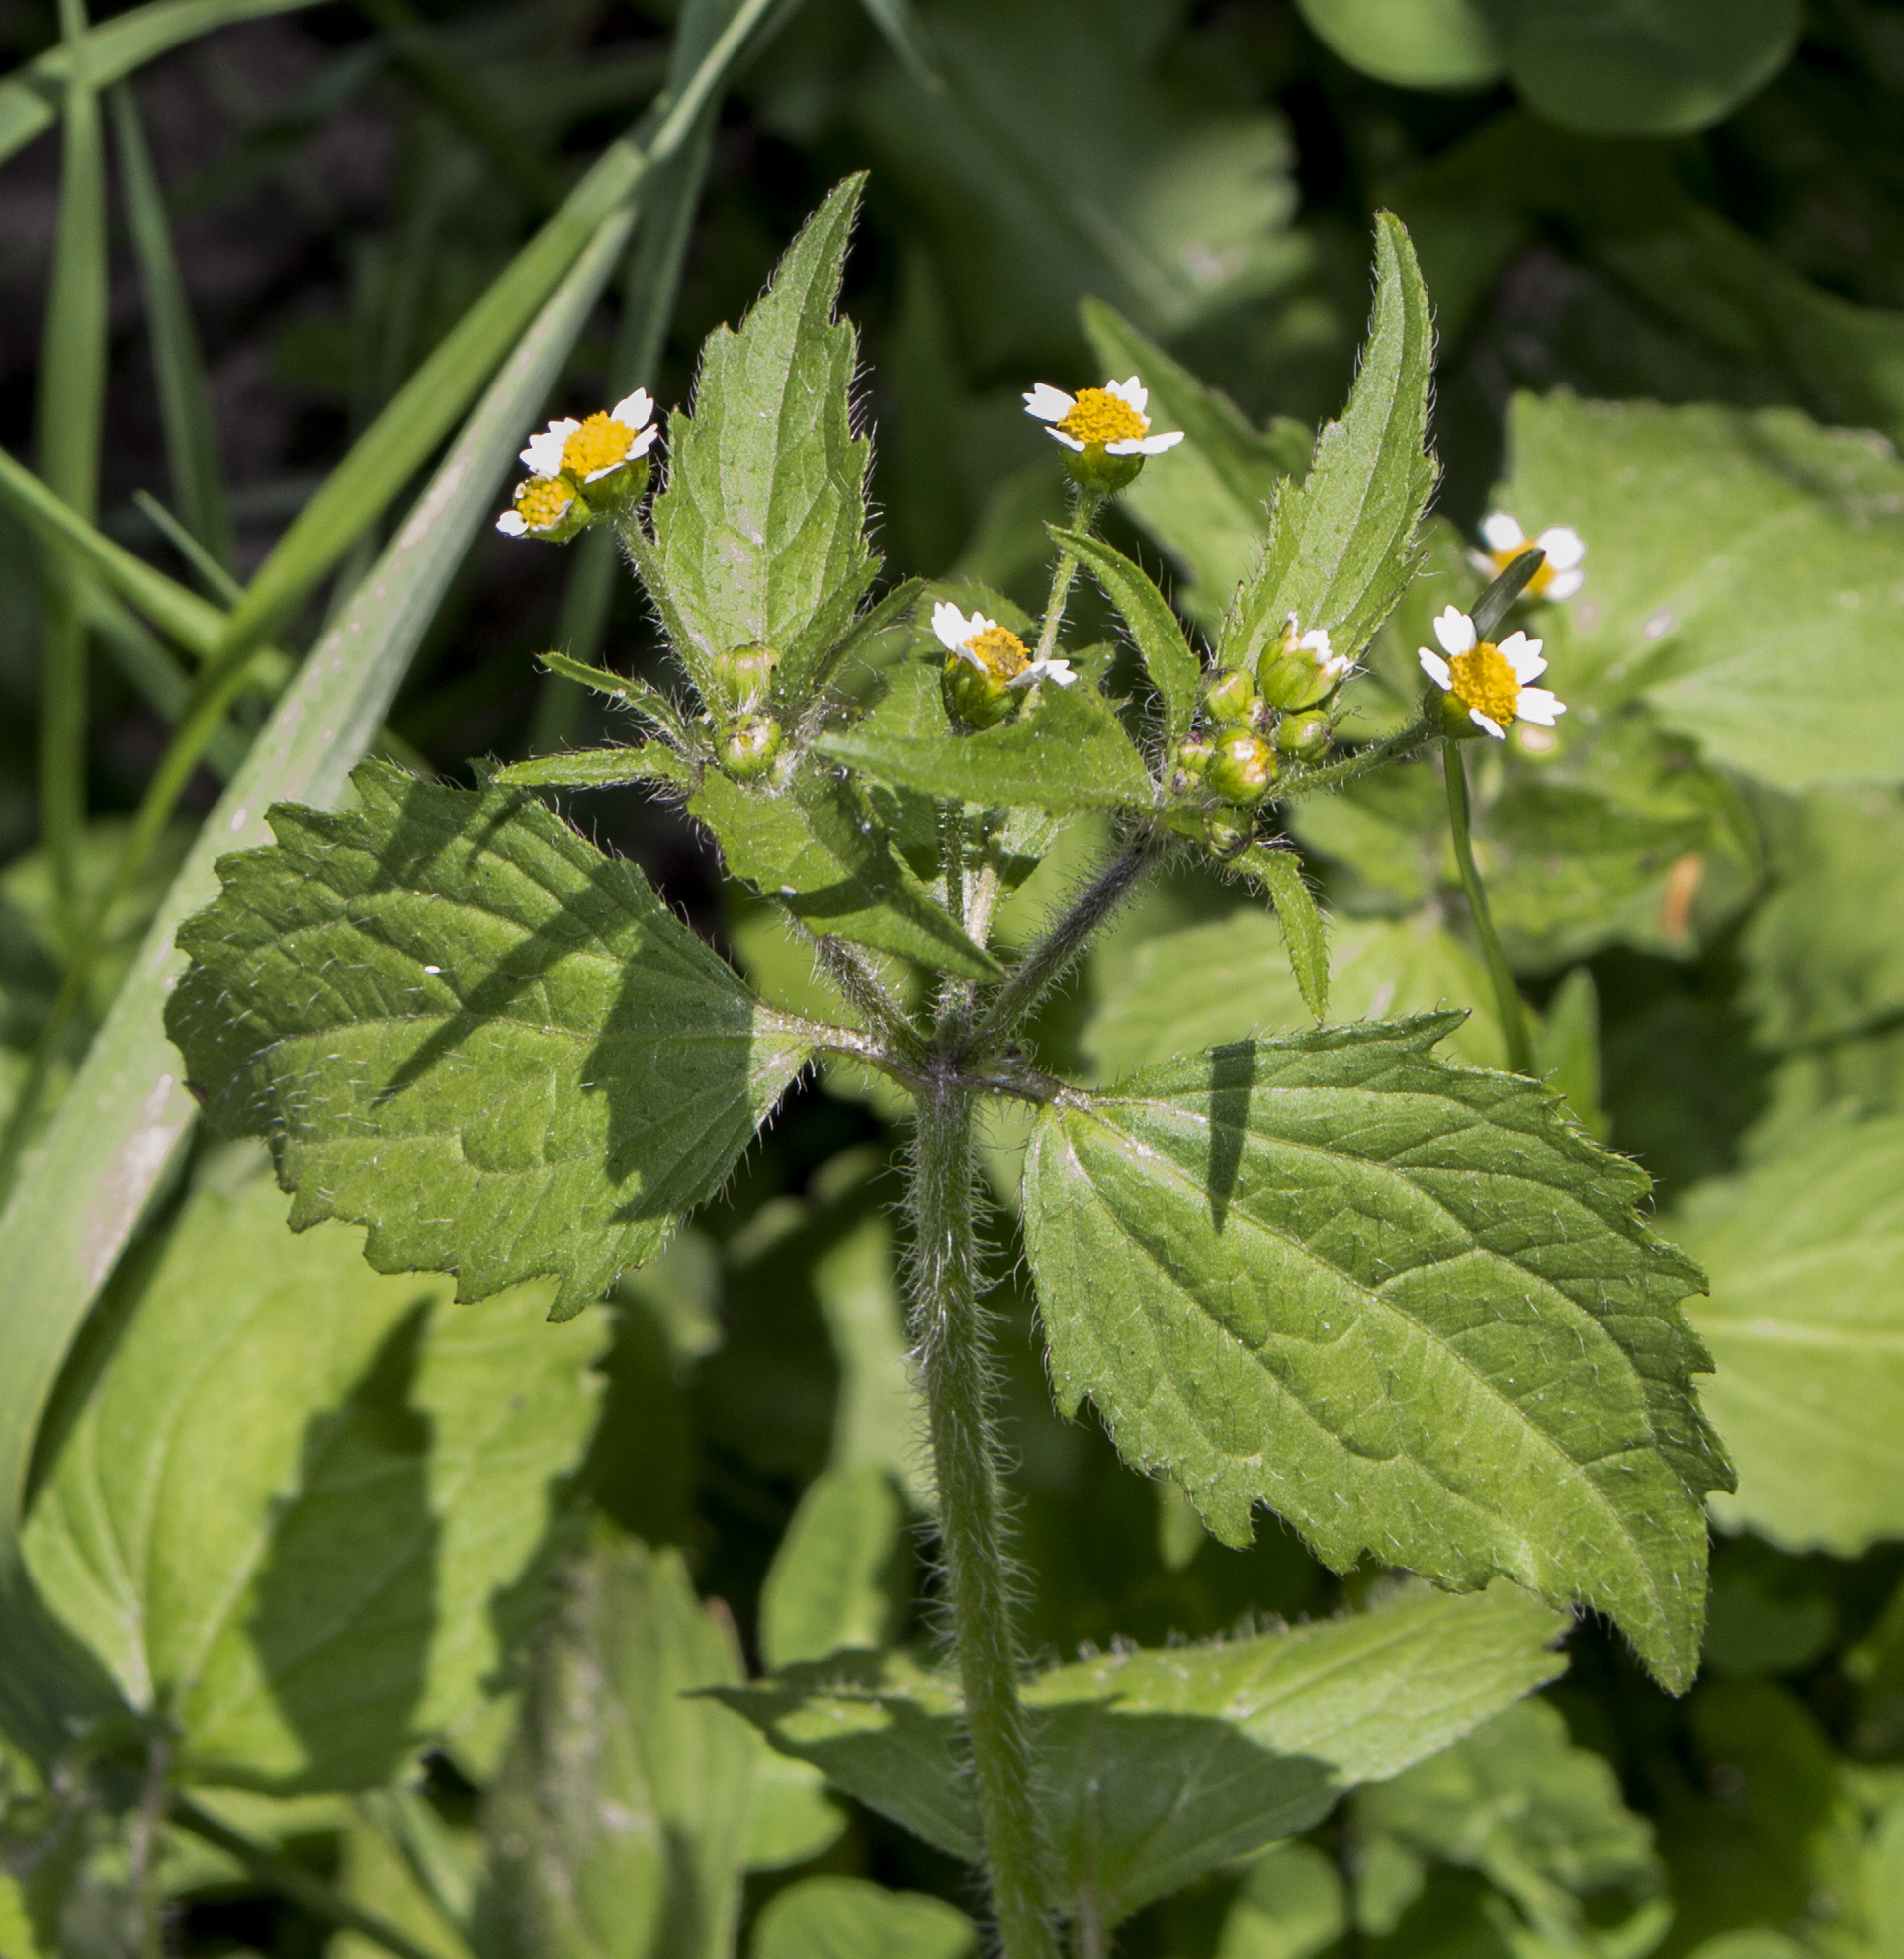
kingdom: Plantae
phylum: Tracheophyta
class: Magnoliopsida
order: Asterales
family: Asteraceae
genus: Galinsoga
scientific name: Galinsoga quadriradiata
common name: Shaggy soldier
